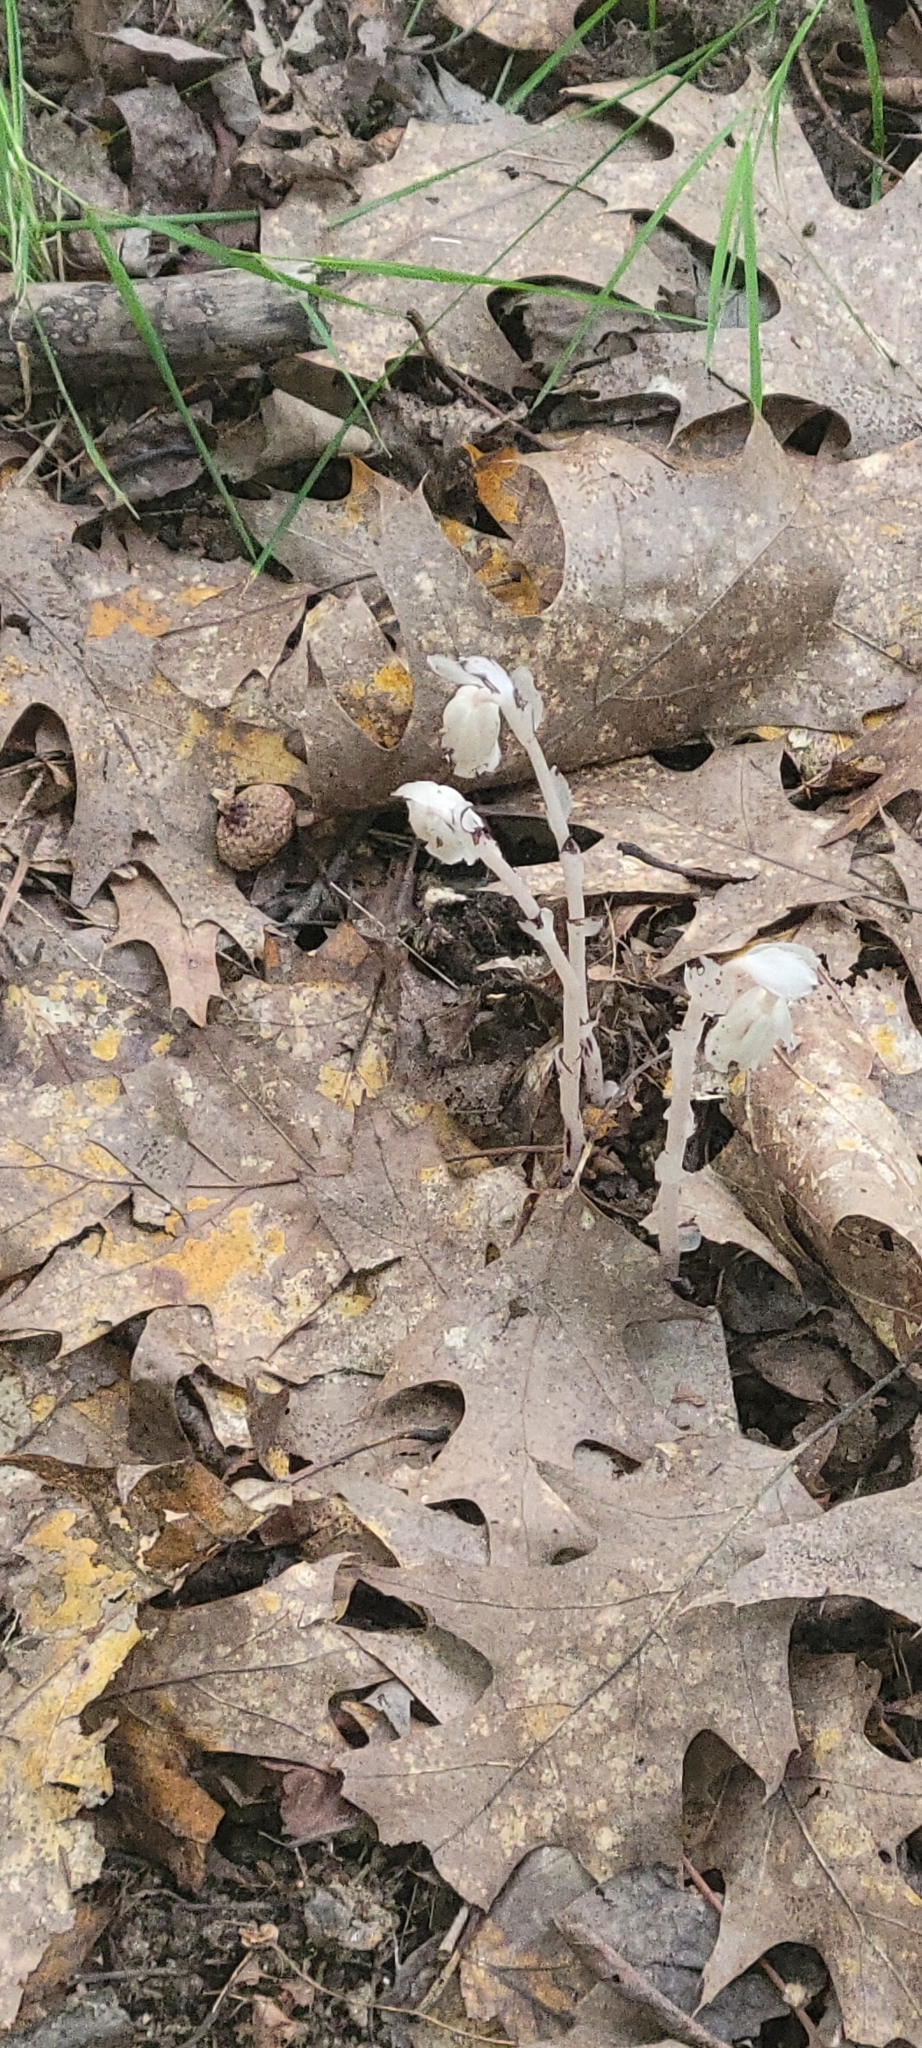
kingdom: Plantae
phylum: Tracheophyta
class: Magnoliopsida
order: Ericales
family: Ericaceae
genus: Monotropa
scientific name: Monotropa uniflora
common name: Convulsion root
